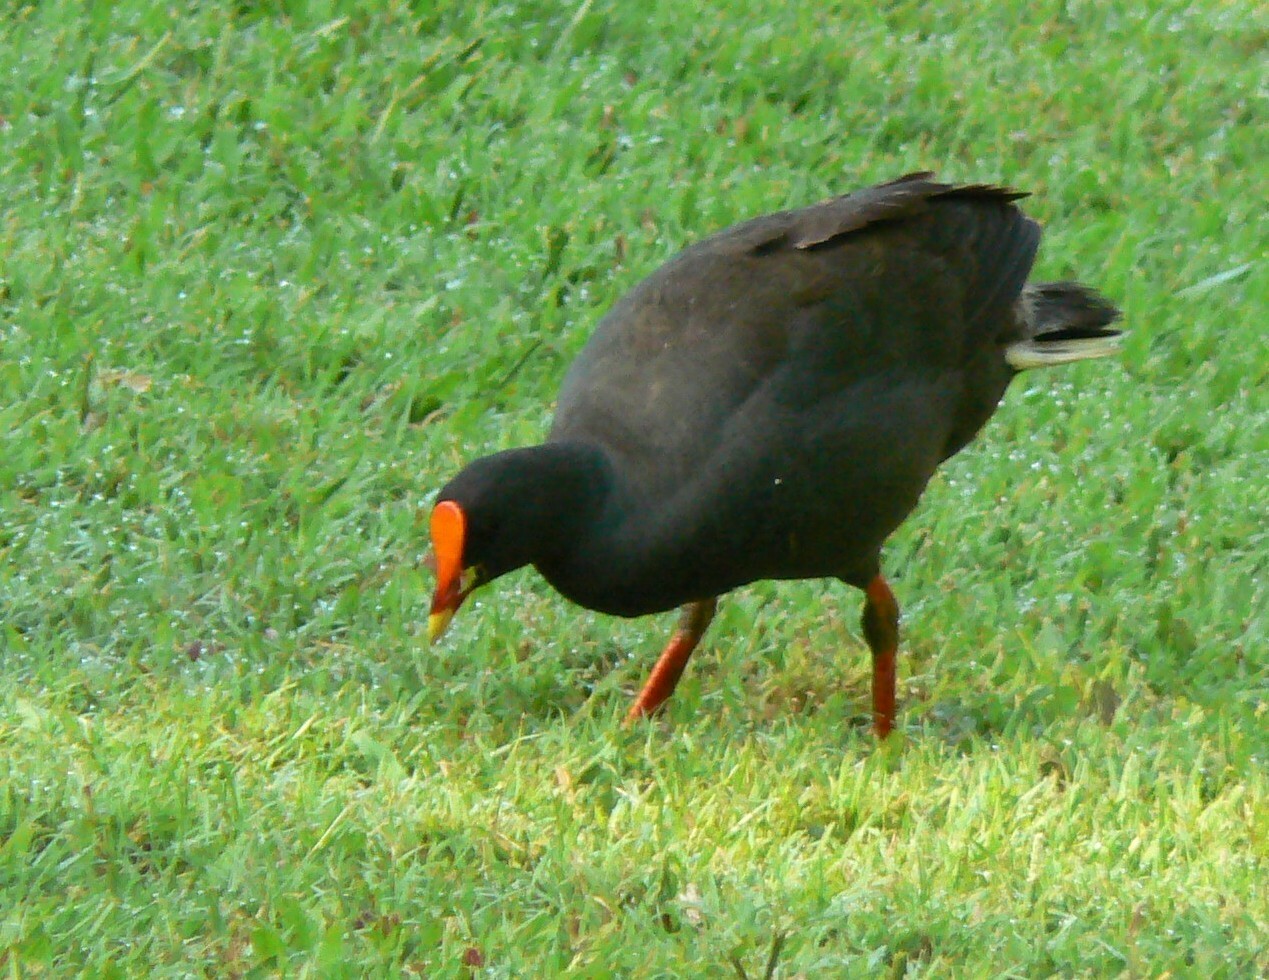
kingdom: Animalia
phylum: Chordata
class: Aves
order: Gruiformes
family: Rallidae
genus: Gallinula
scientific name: Gallinula tenebrosa
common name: Dusky moorhen
